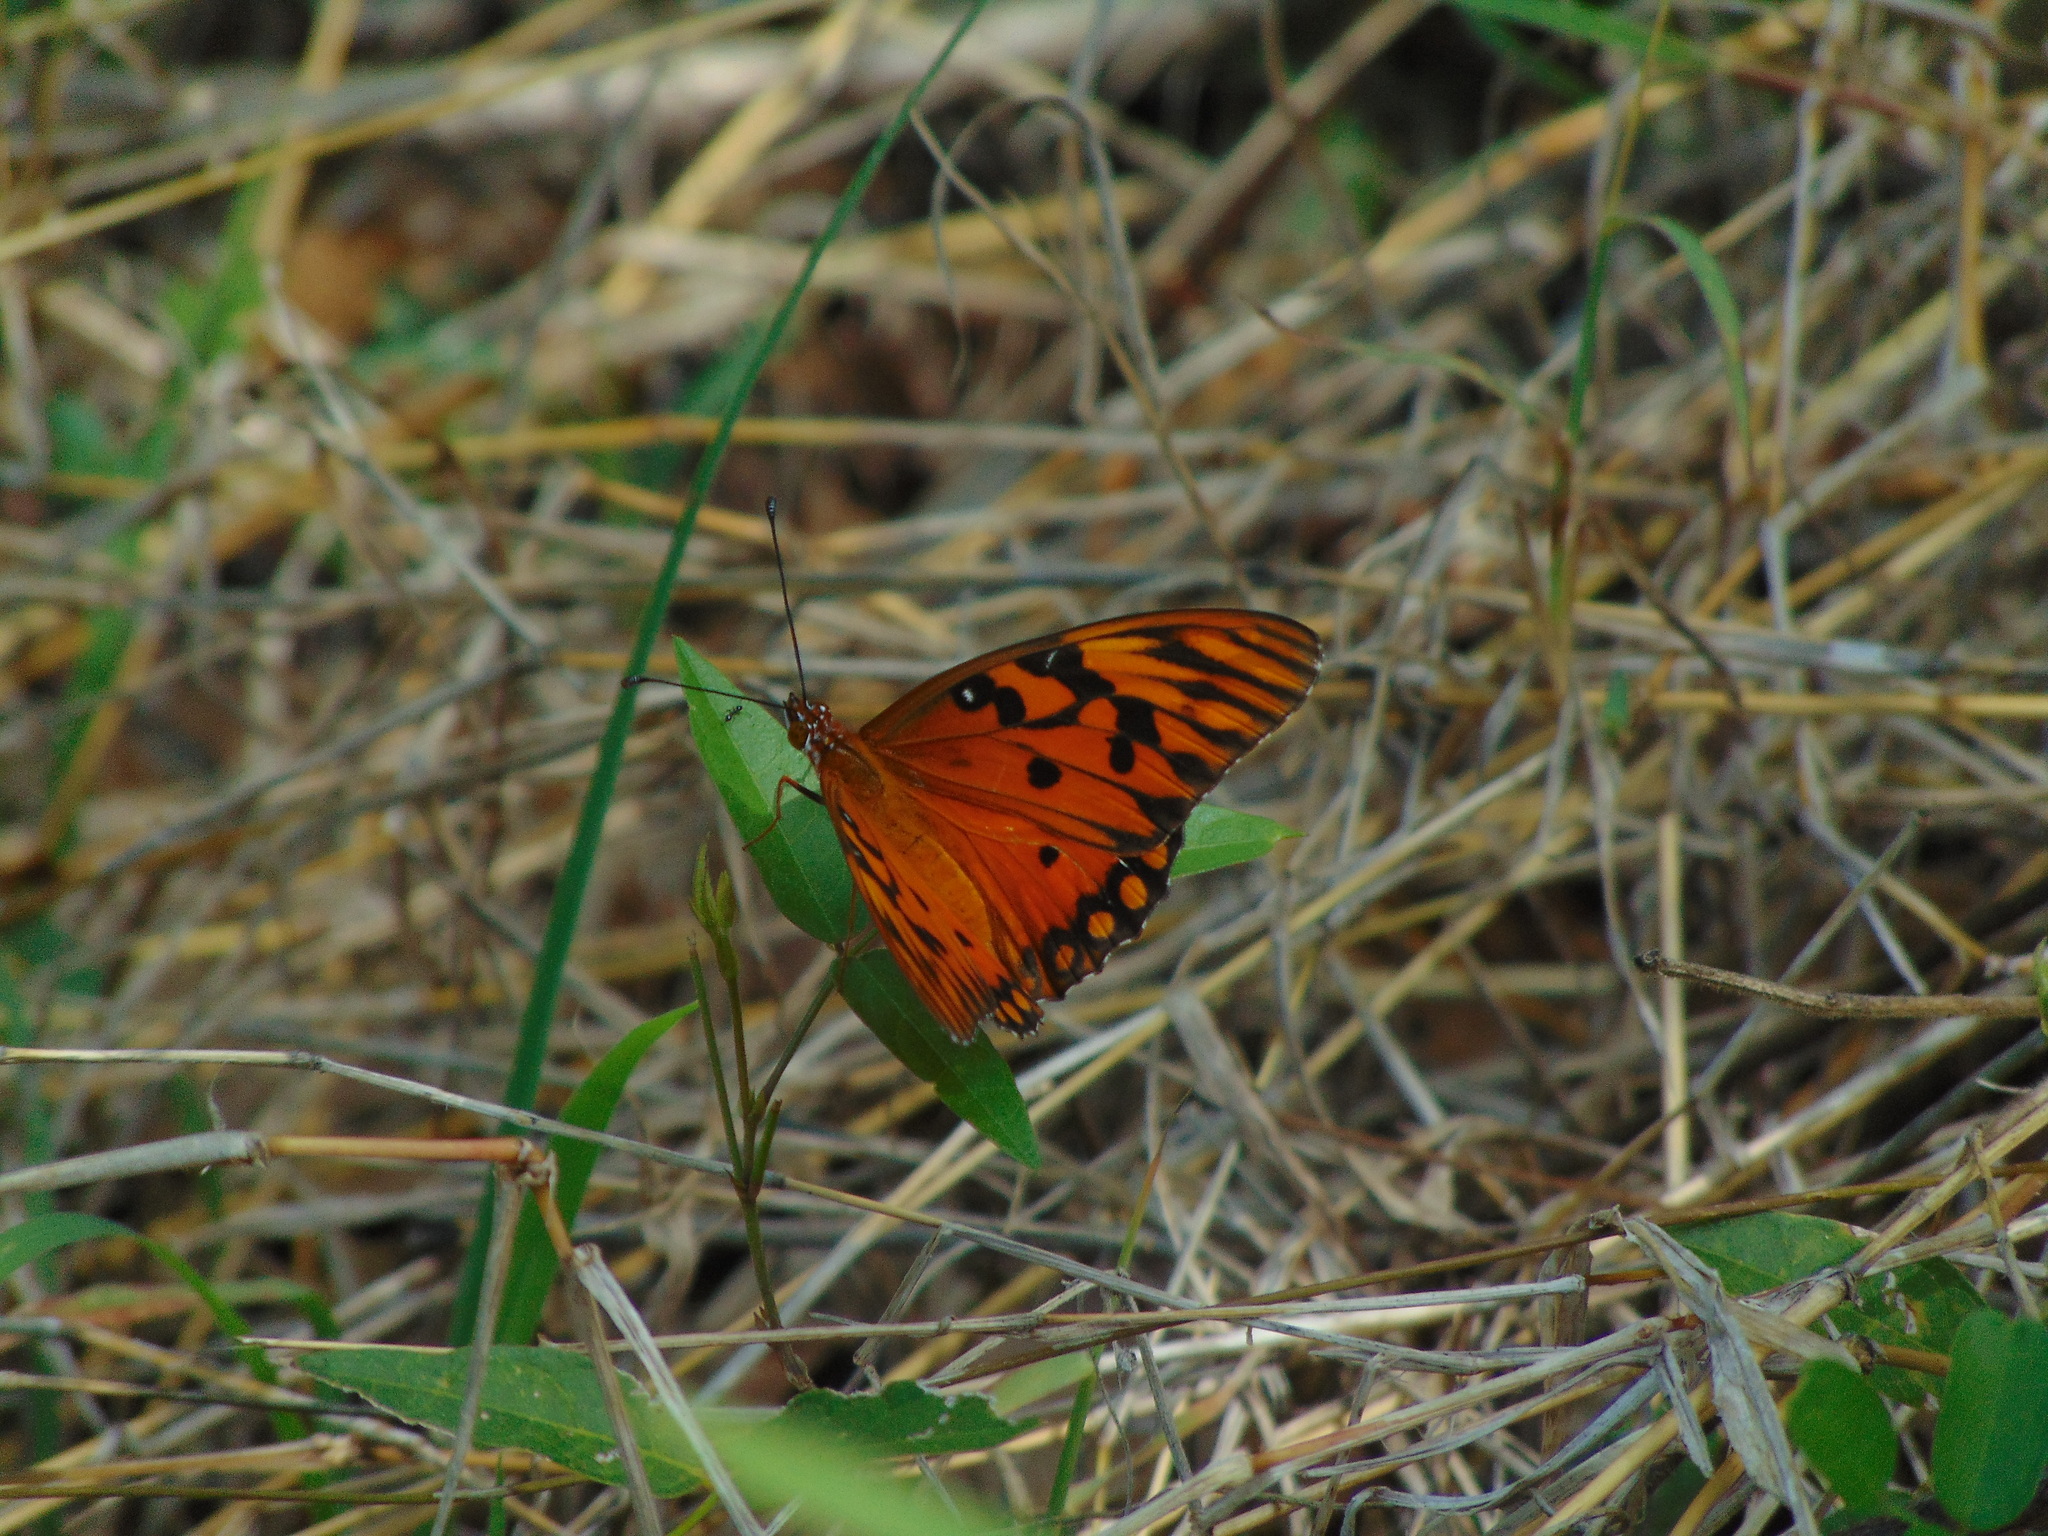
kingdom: Animalia
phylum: Arthropoda
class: Insecta
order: Lepidoptera
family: Nymphalidae
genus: Dione
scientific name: Dione vanillae
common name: Gulf fritillary
